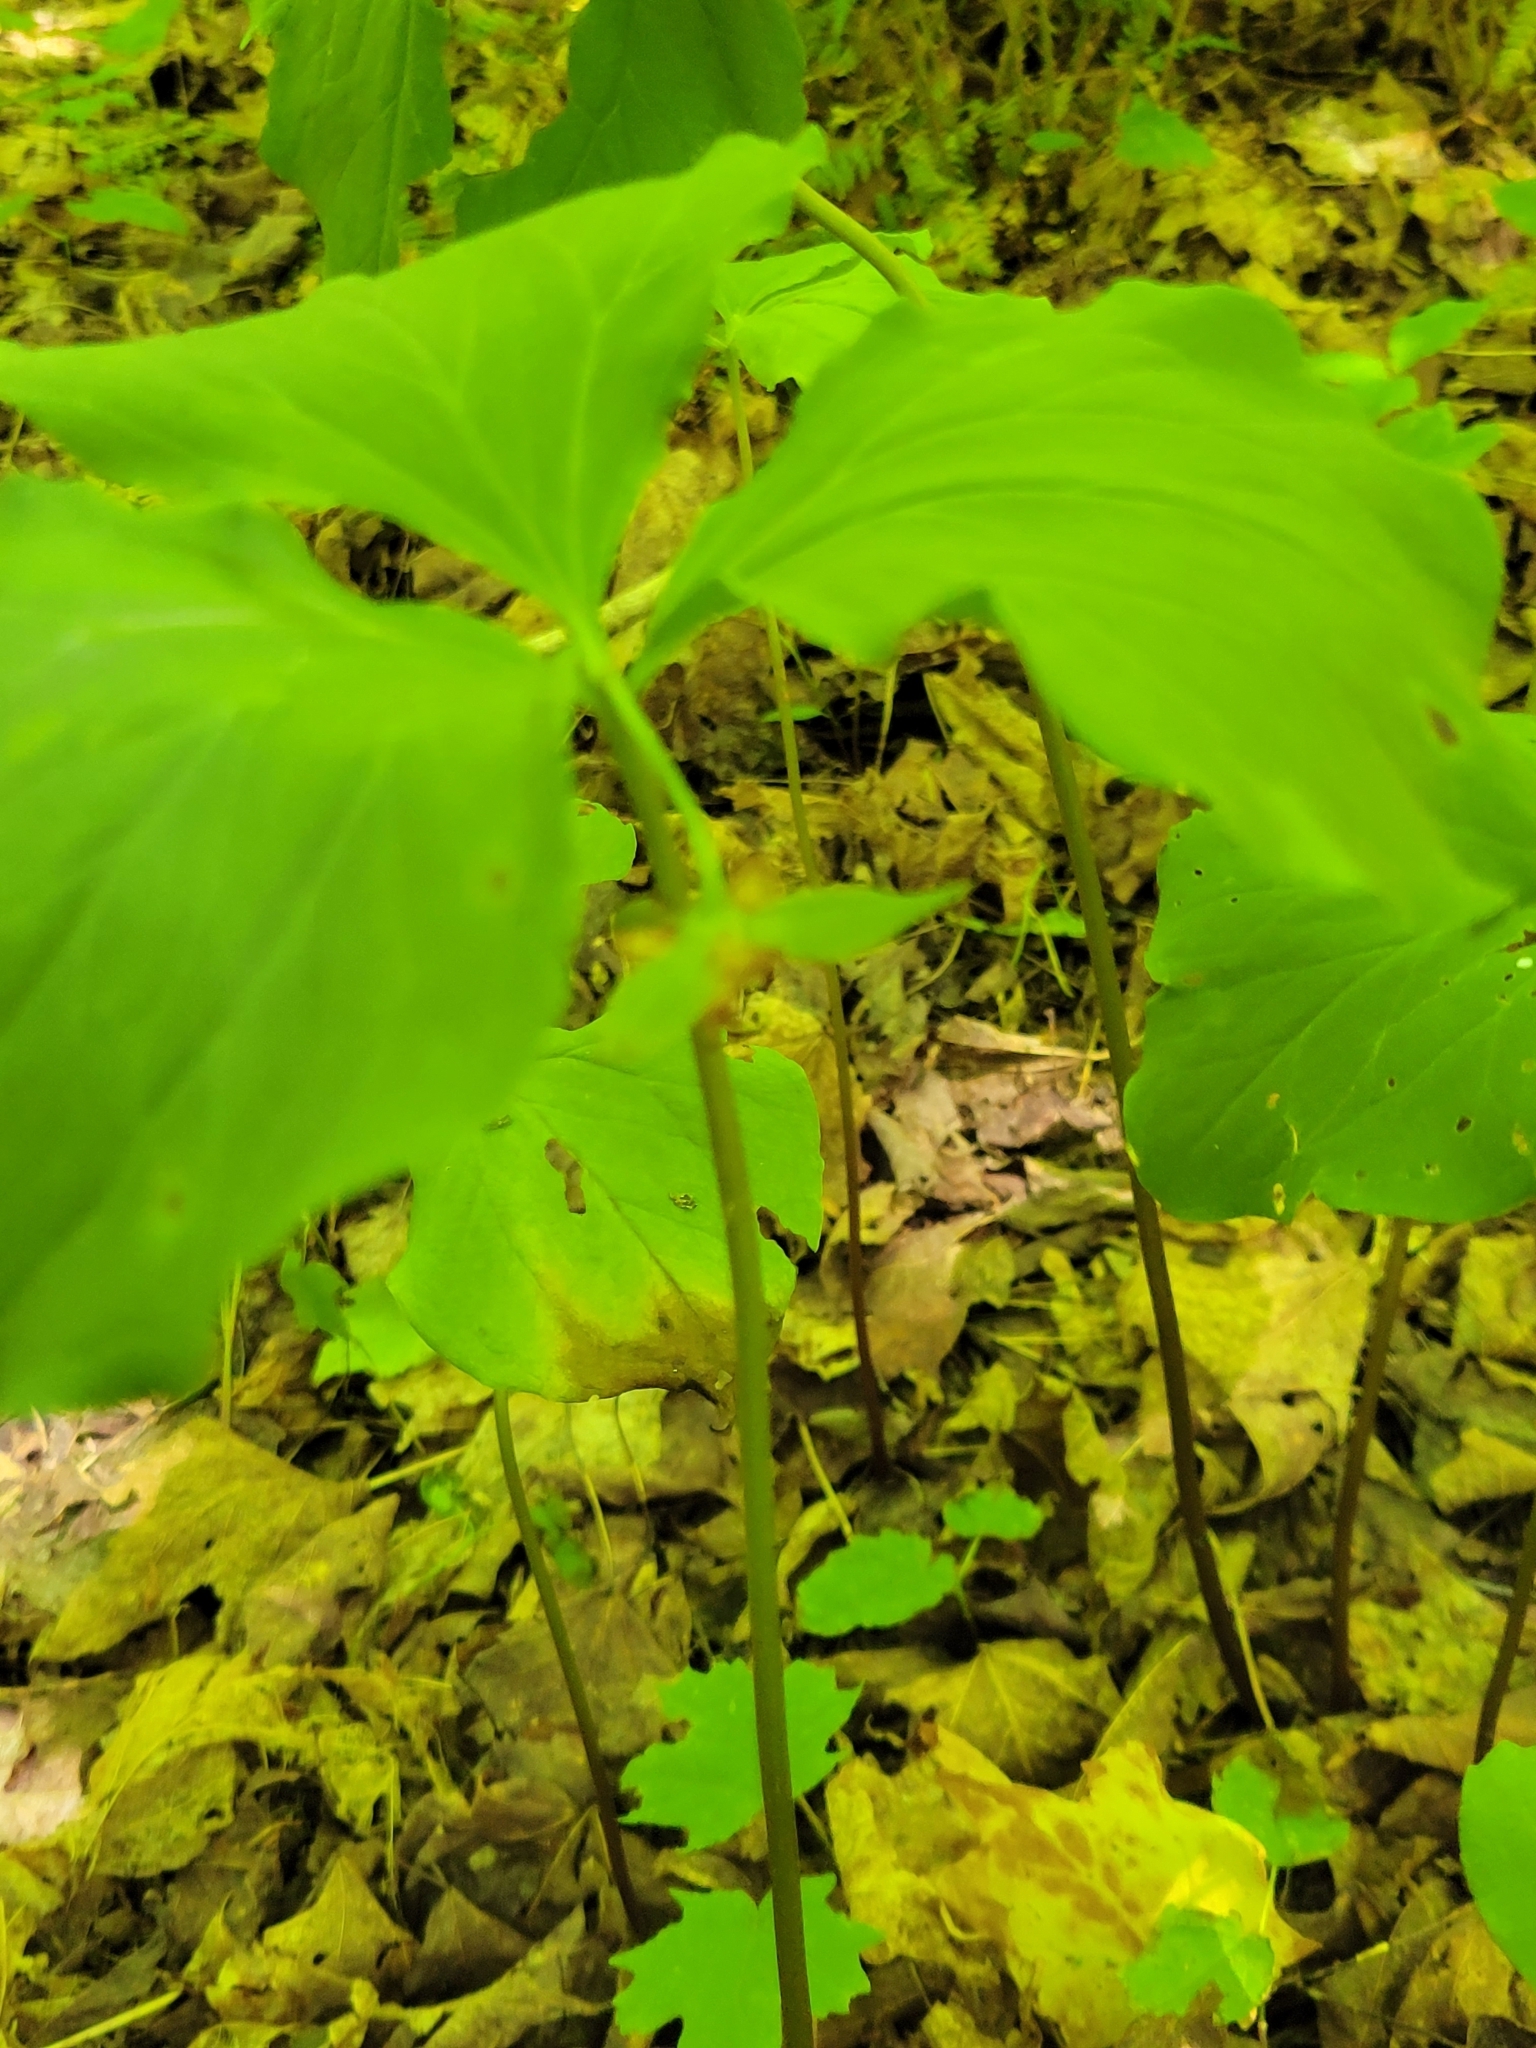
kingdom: Plantae
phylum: Tracheophyta
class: Liliopsida
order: Liliales
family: Melanthiaceae
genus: Trillium
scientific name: Trillium cernuum
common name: Nodding trillium
